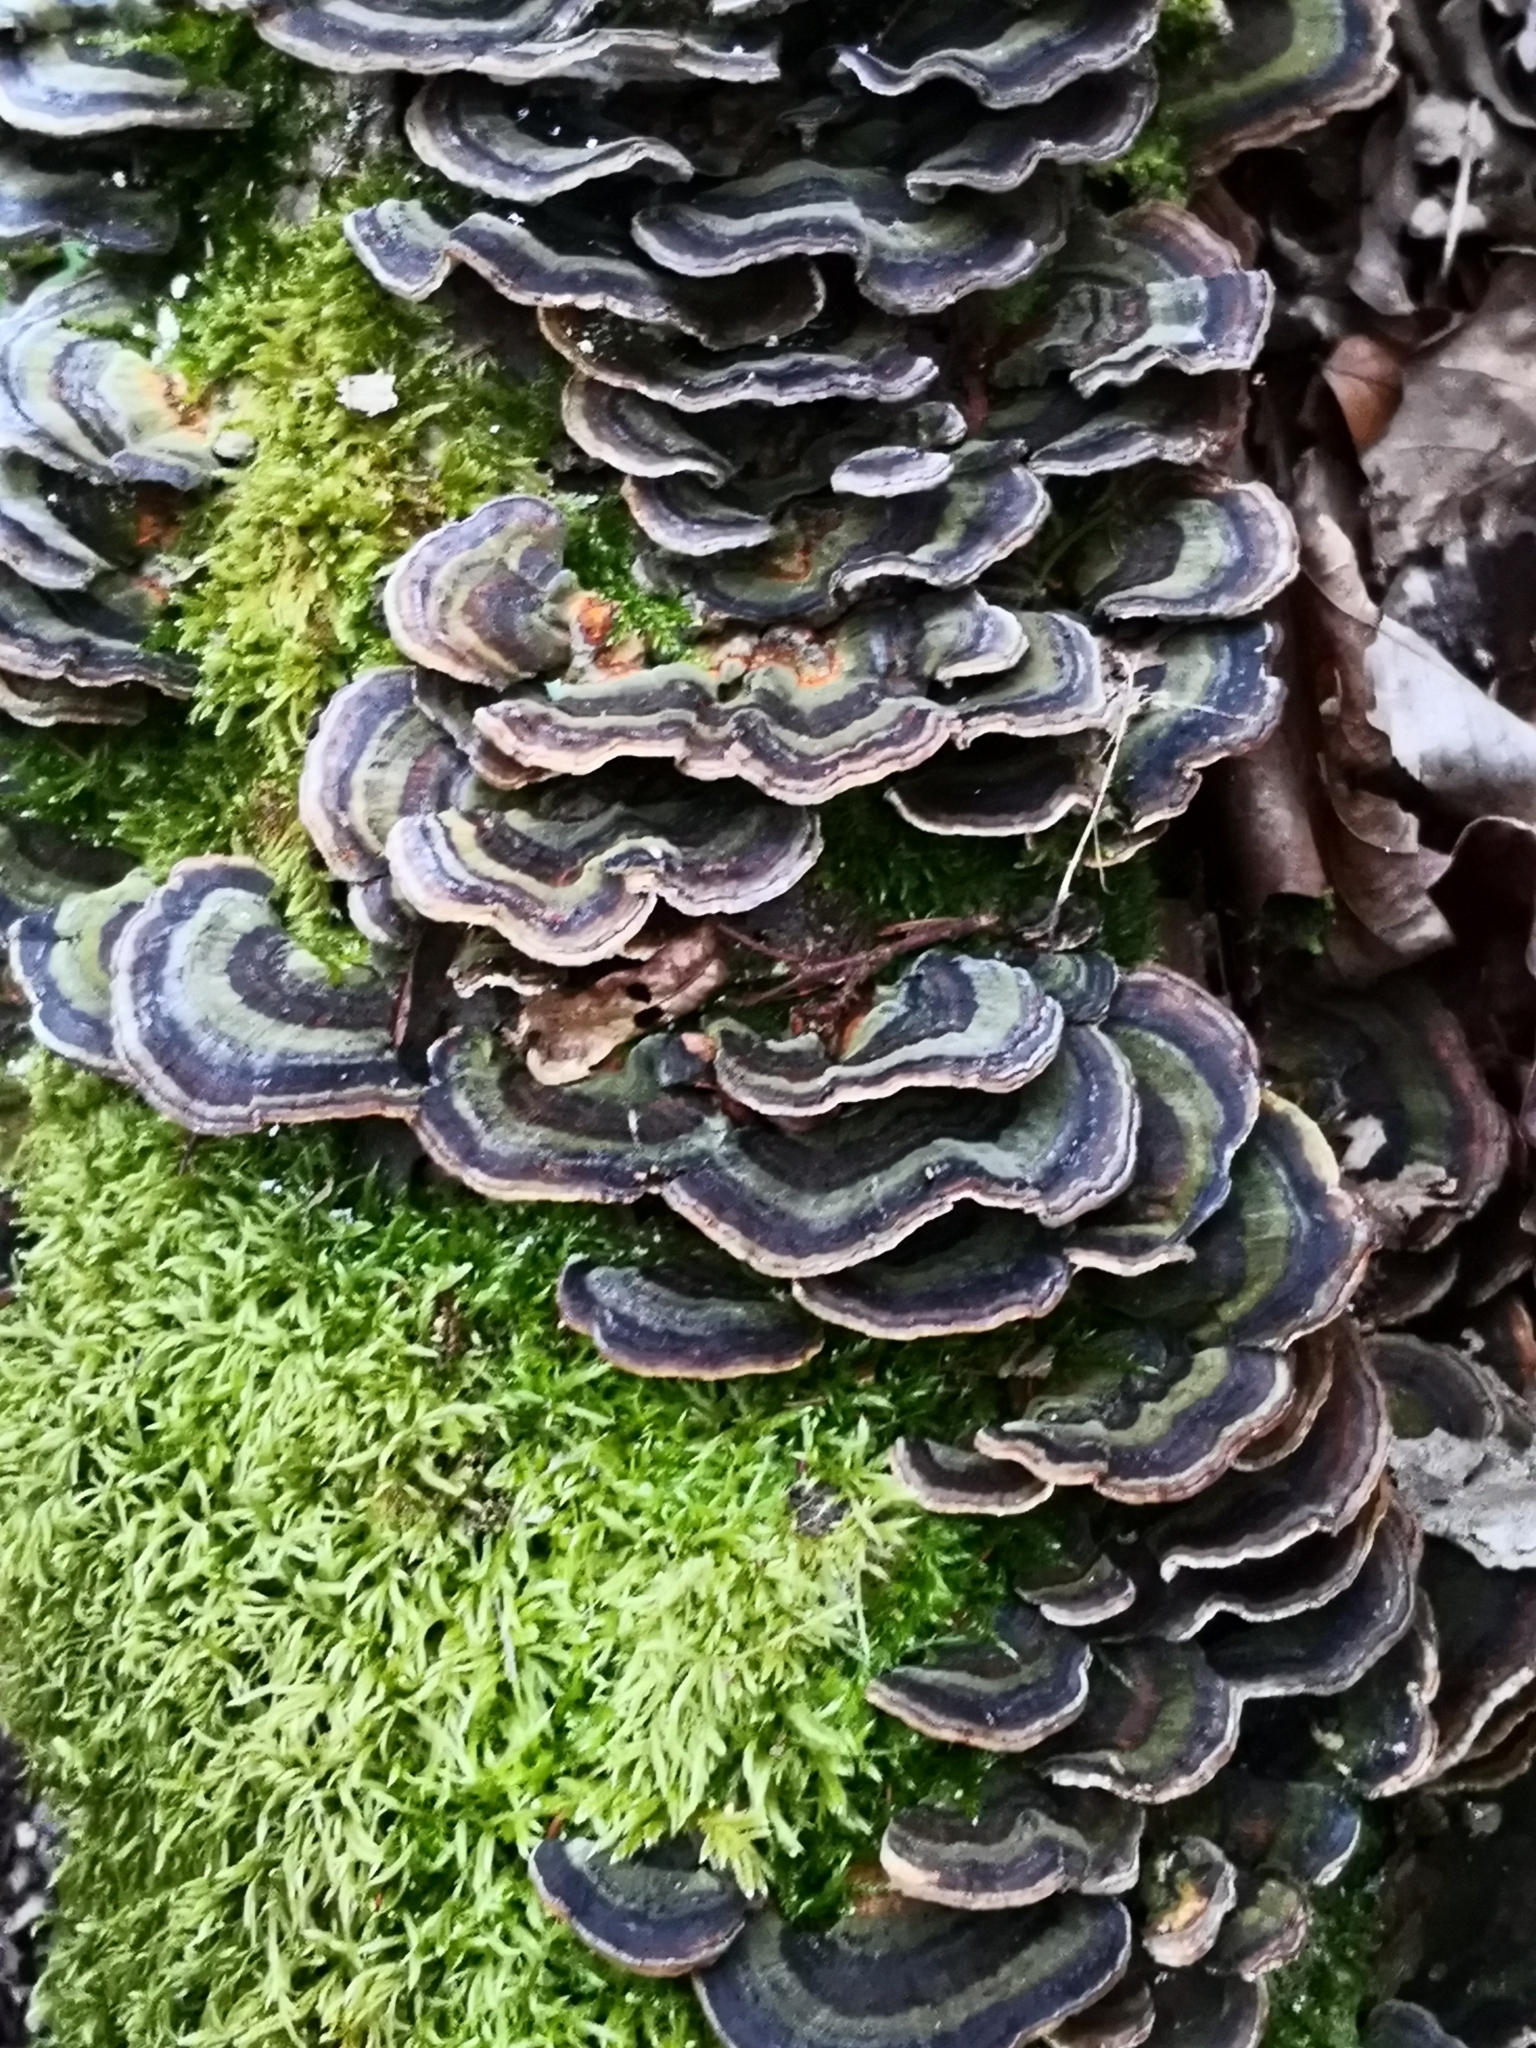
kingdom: Fungi
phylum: Basidiomycota
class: Agaricomycetes
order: Polyporales
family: Polyporaceae
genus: Trametes
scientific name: Trametes versicolor
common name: Turkeytail
